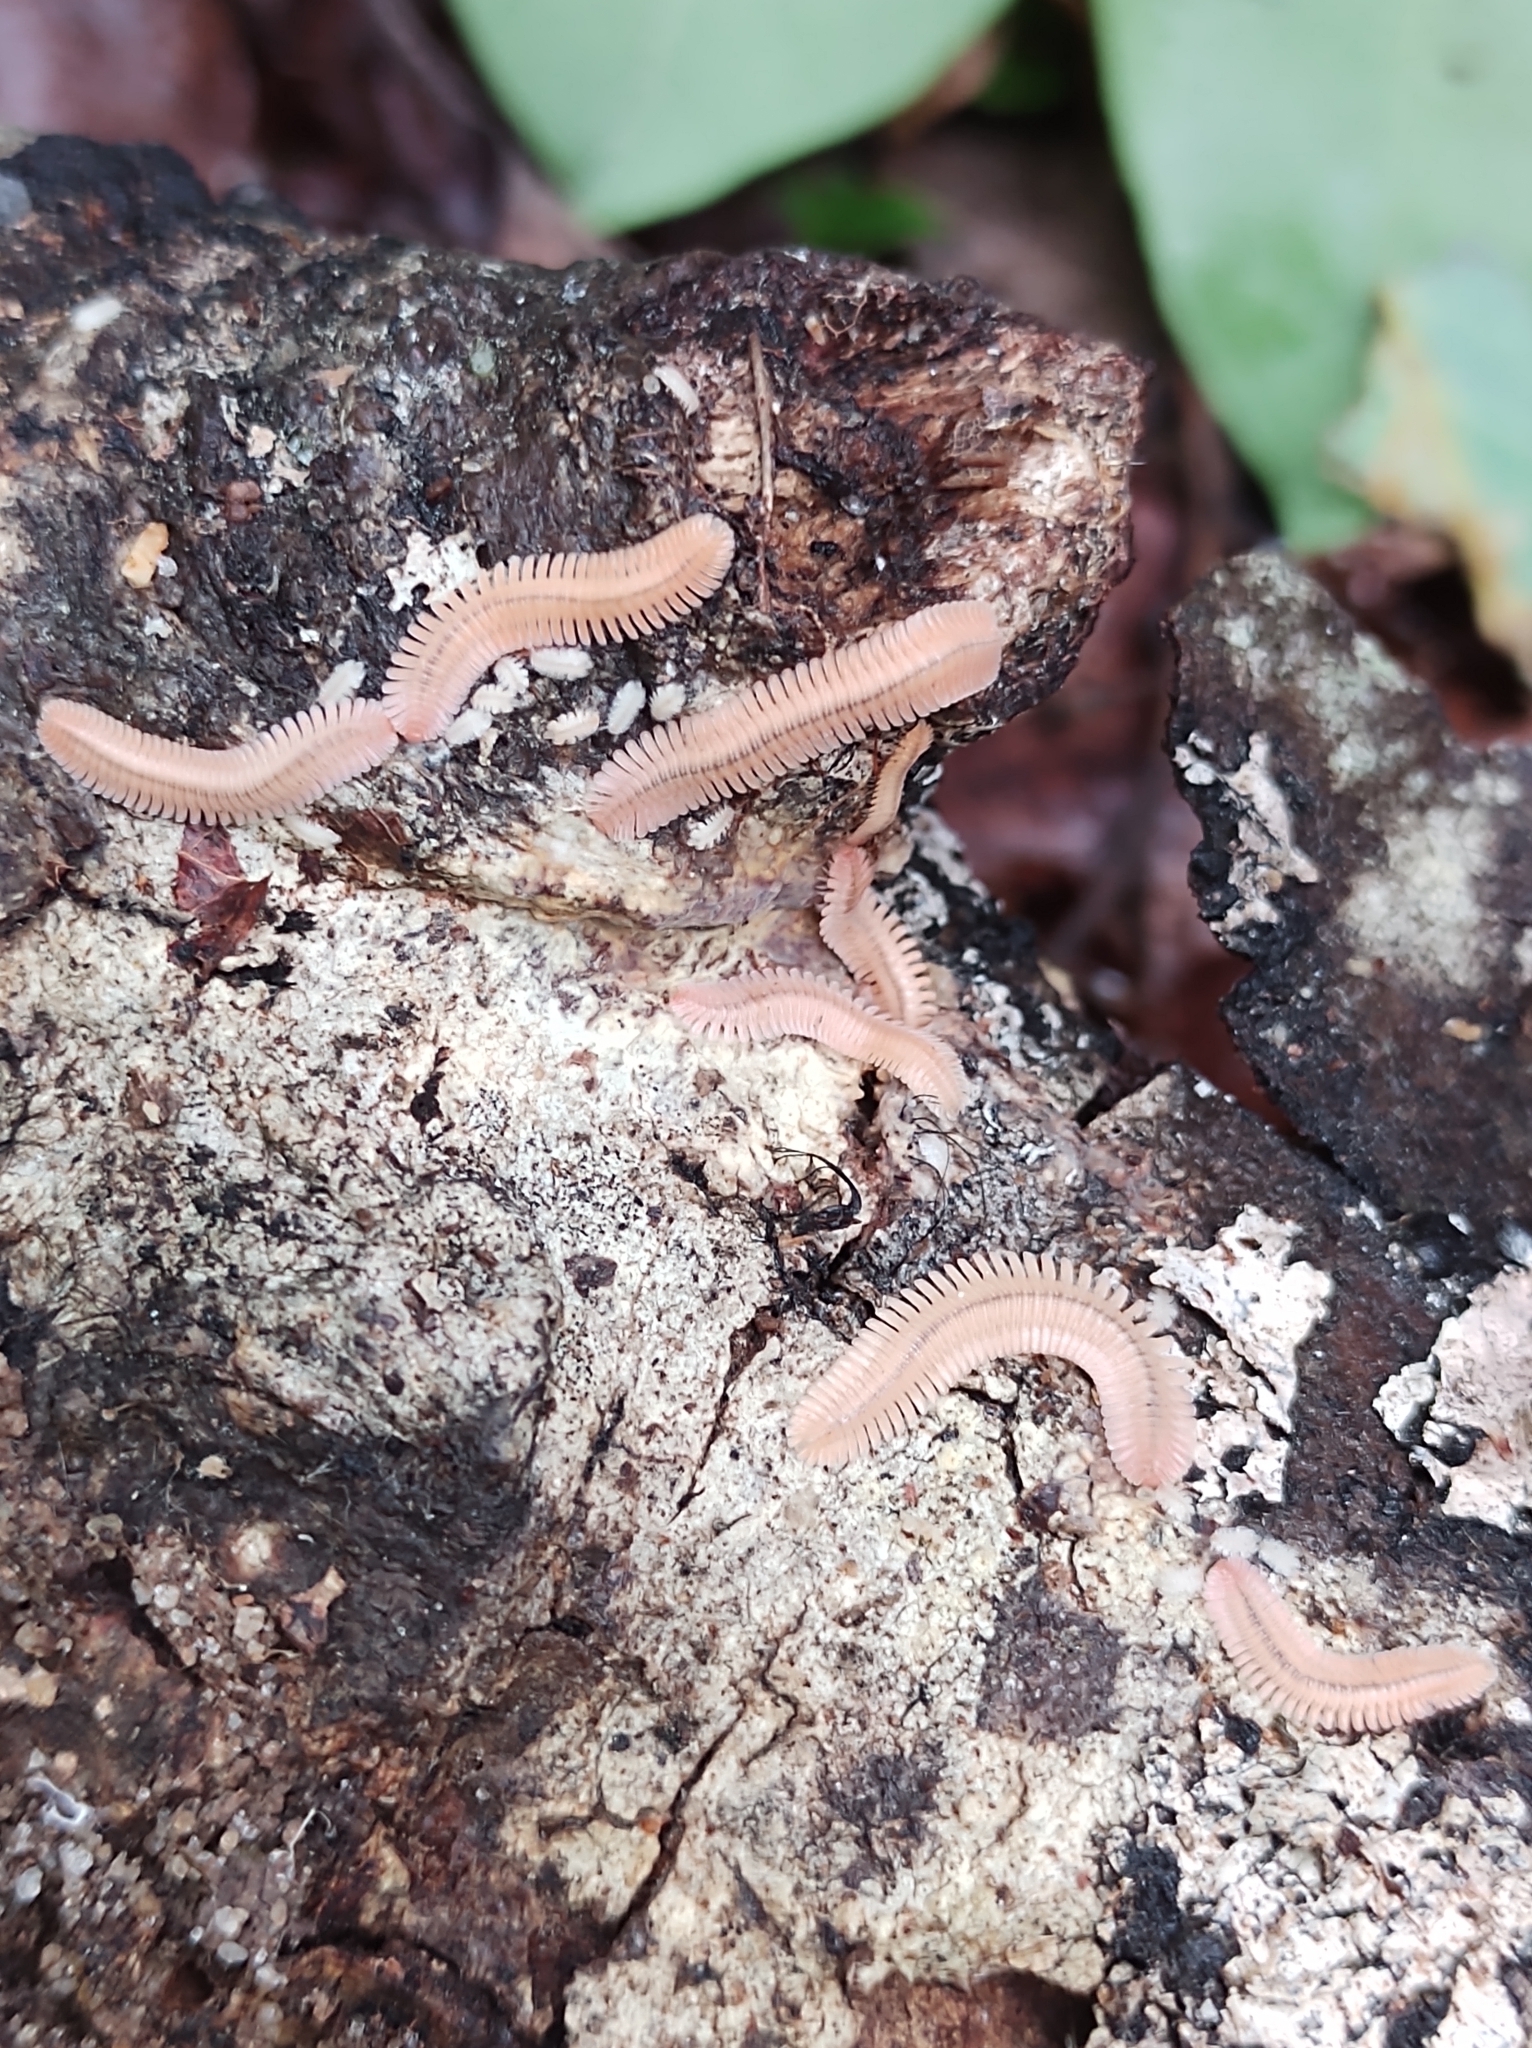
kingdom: Animalia
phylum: Arthropoda
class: Diplopoda
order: Platydesmida
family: Andrognathidae
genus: Brachycybe
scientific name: Brachycybe lecontii
